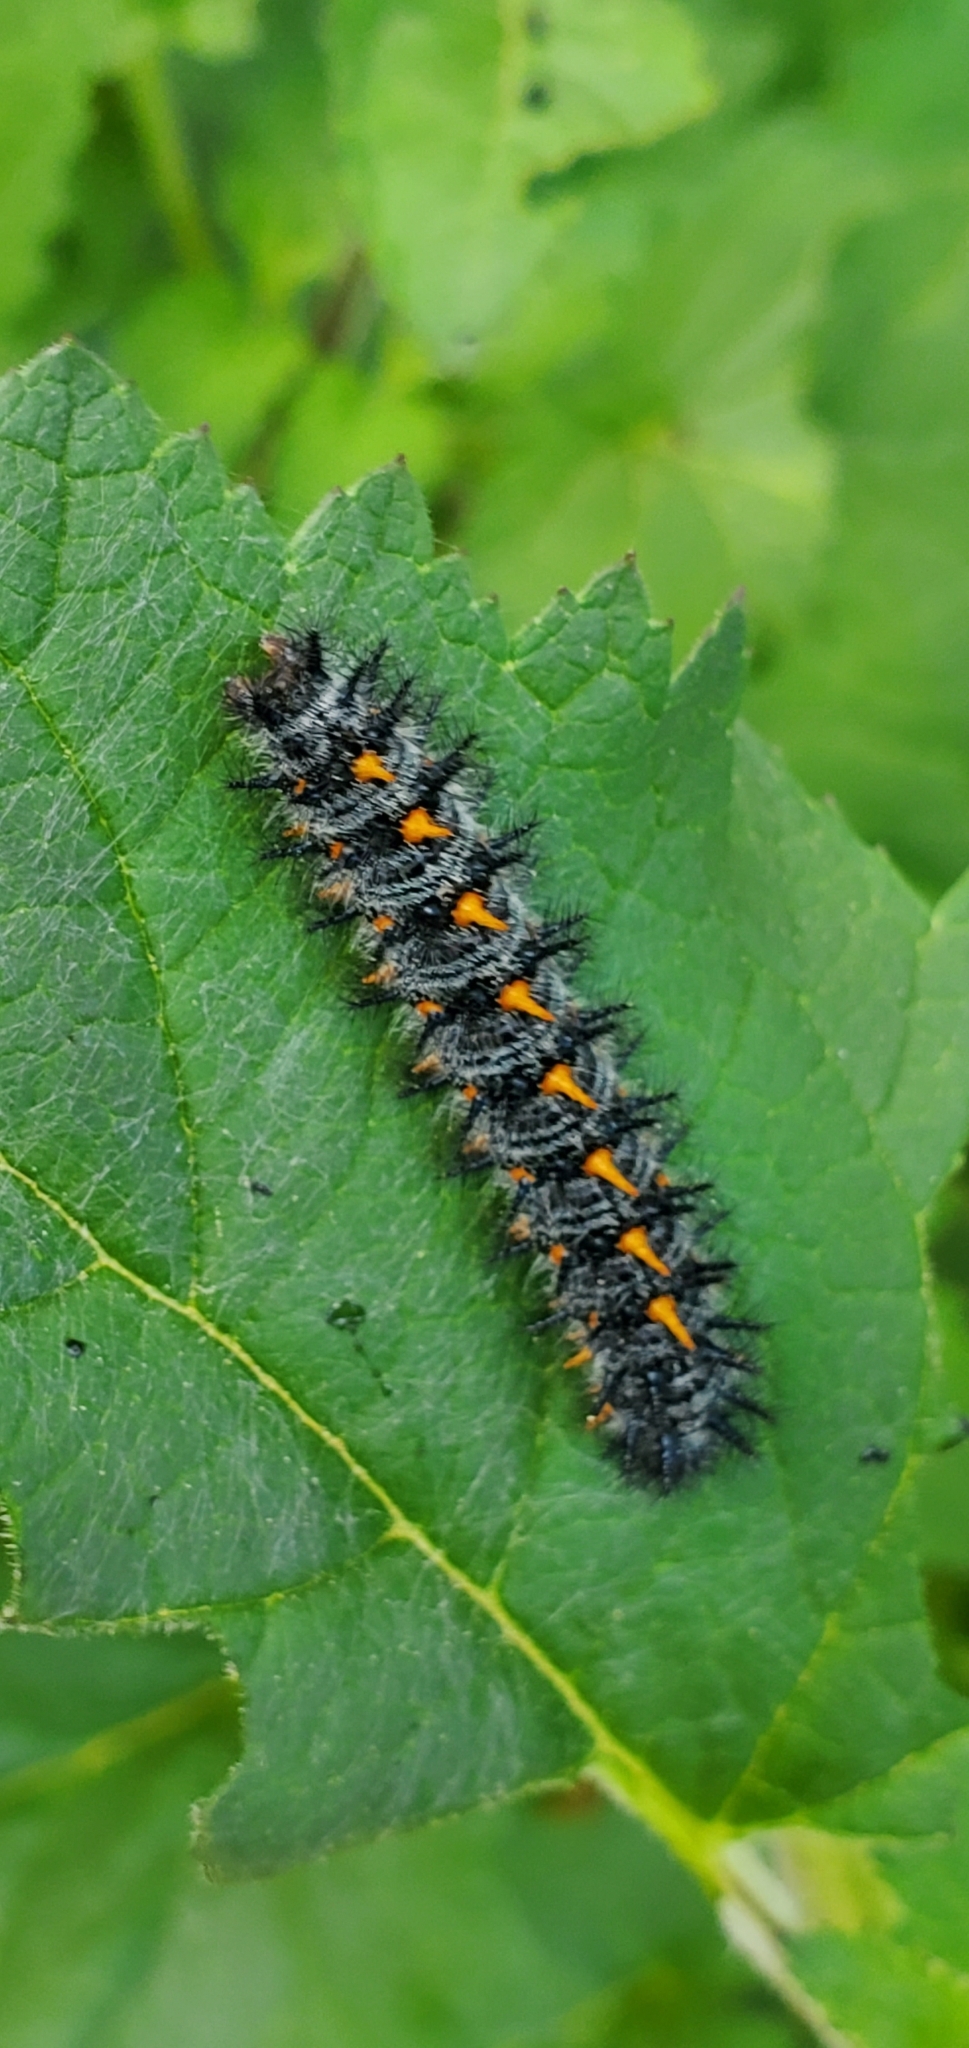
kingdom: Animalia
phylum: Arthropoda
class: Insecta
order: Lepidoptera
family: Nymphalidae
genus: Occidryas
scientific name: Occidryas chalcedona
